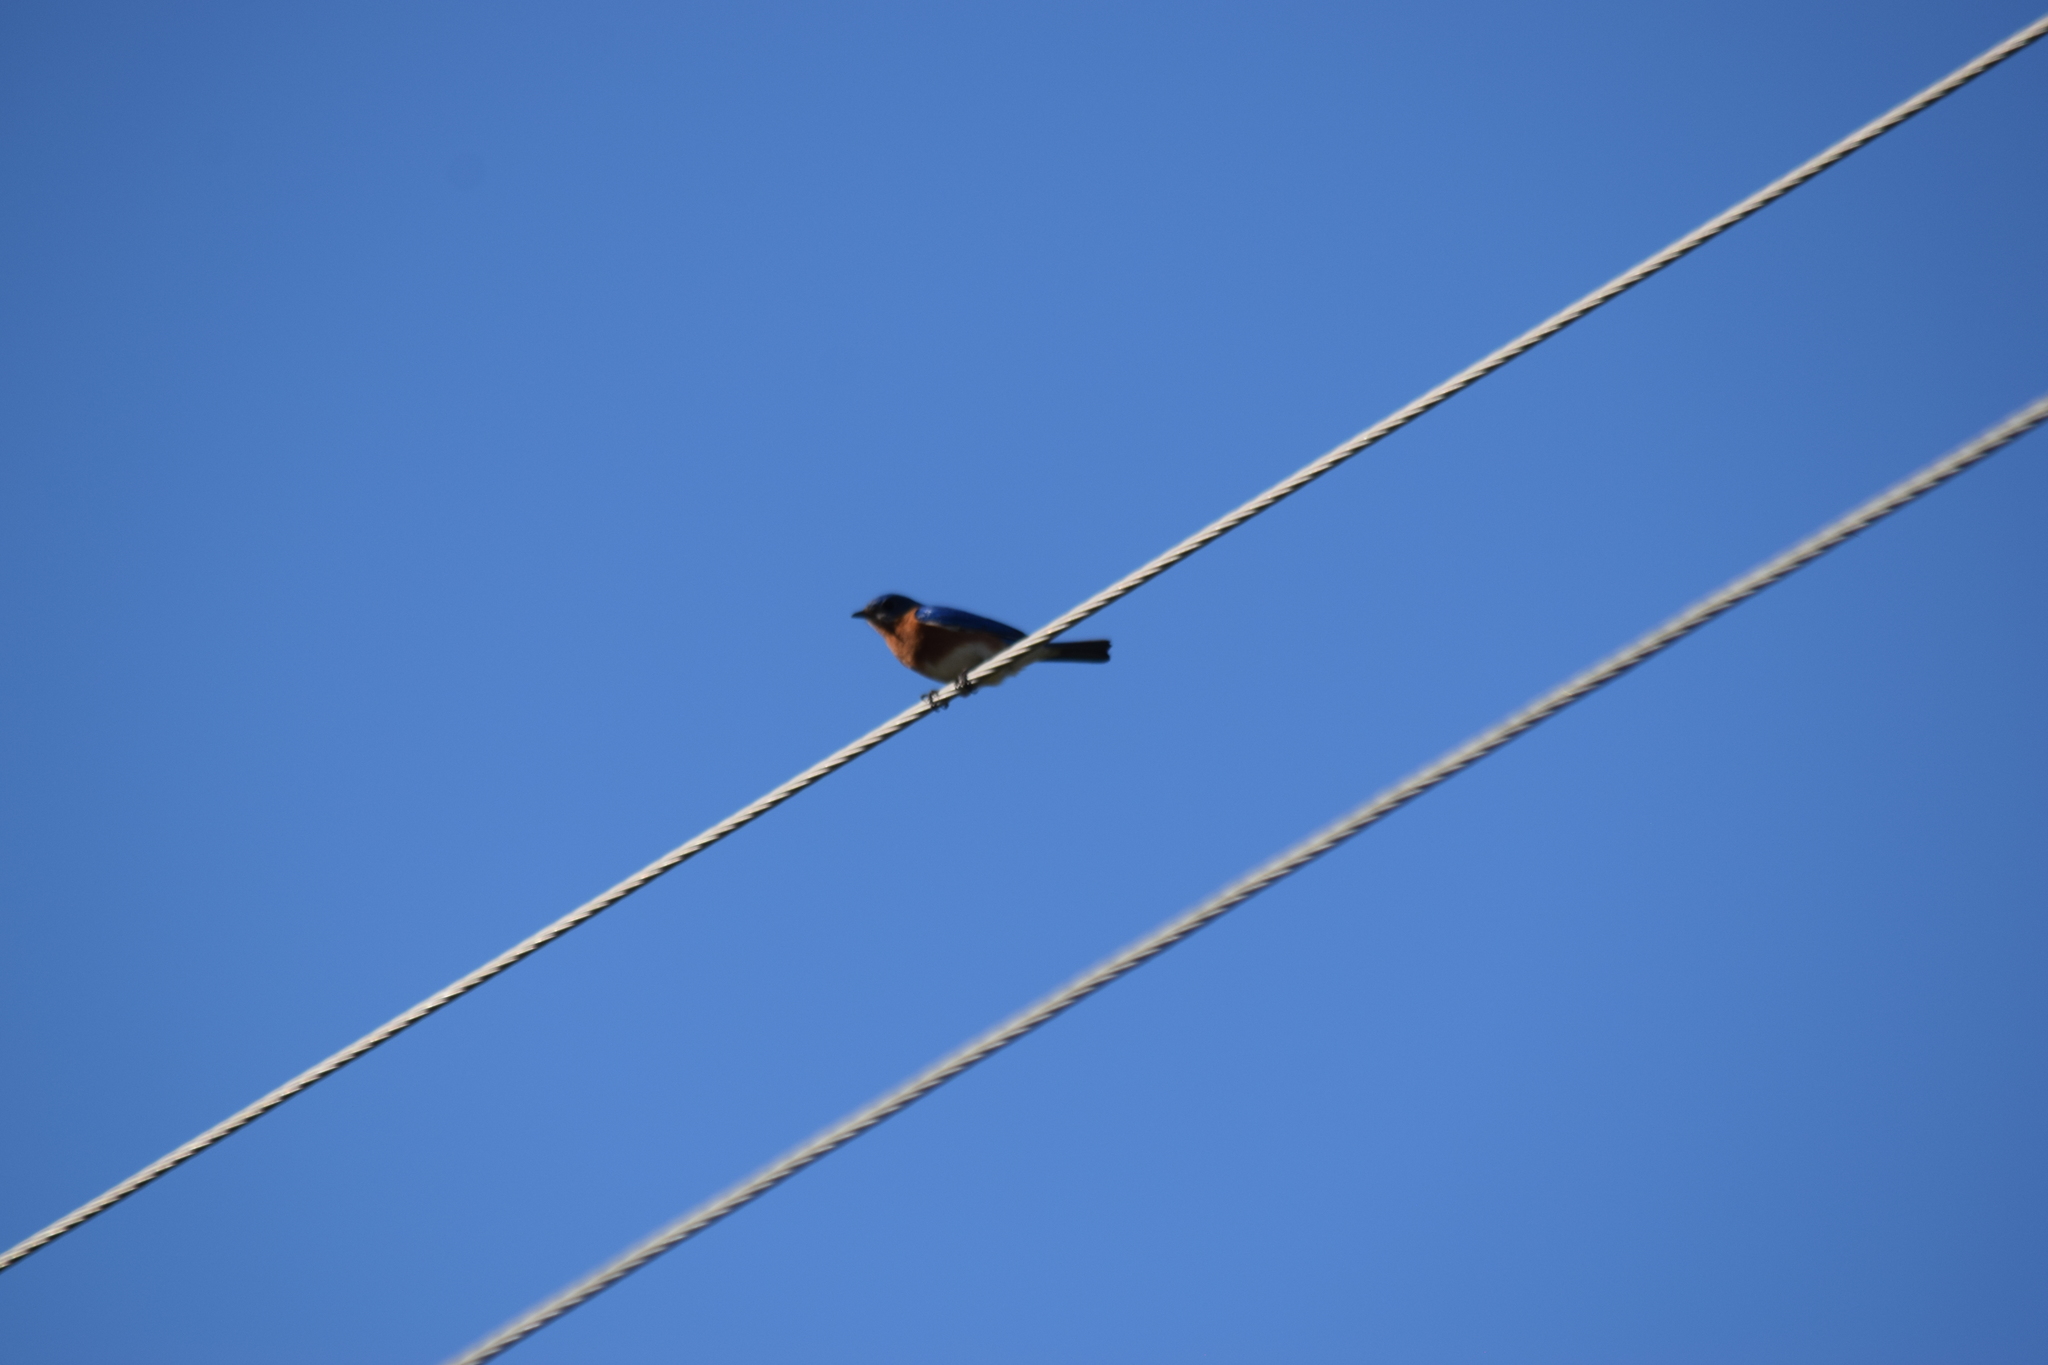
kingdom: Animalia
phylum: Chordata
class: Aves
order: Passeriformes
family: Turdidae
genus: Sialia
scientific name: Sialia sialis
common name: Eastern bluebird
